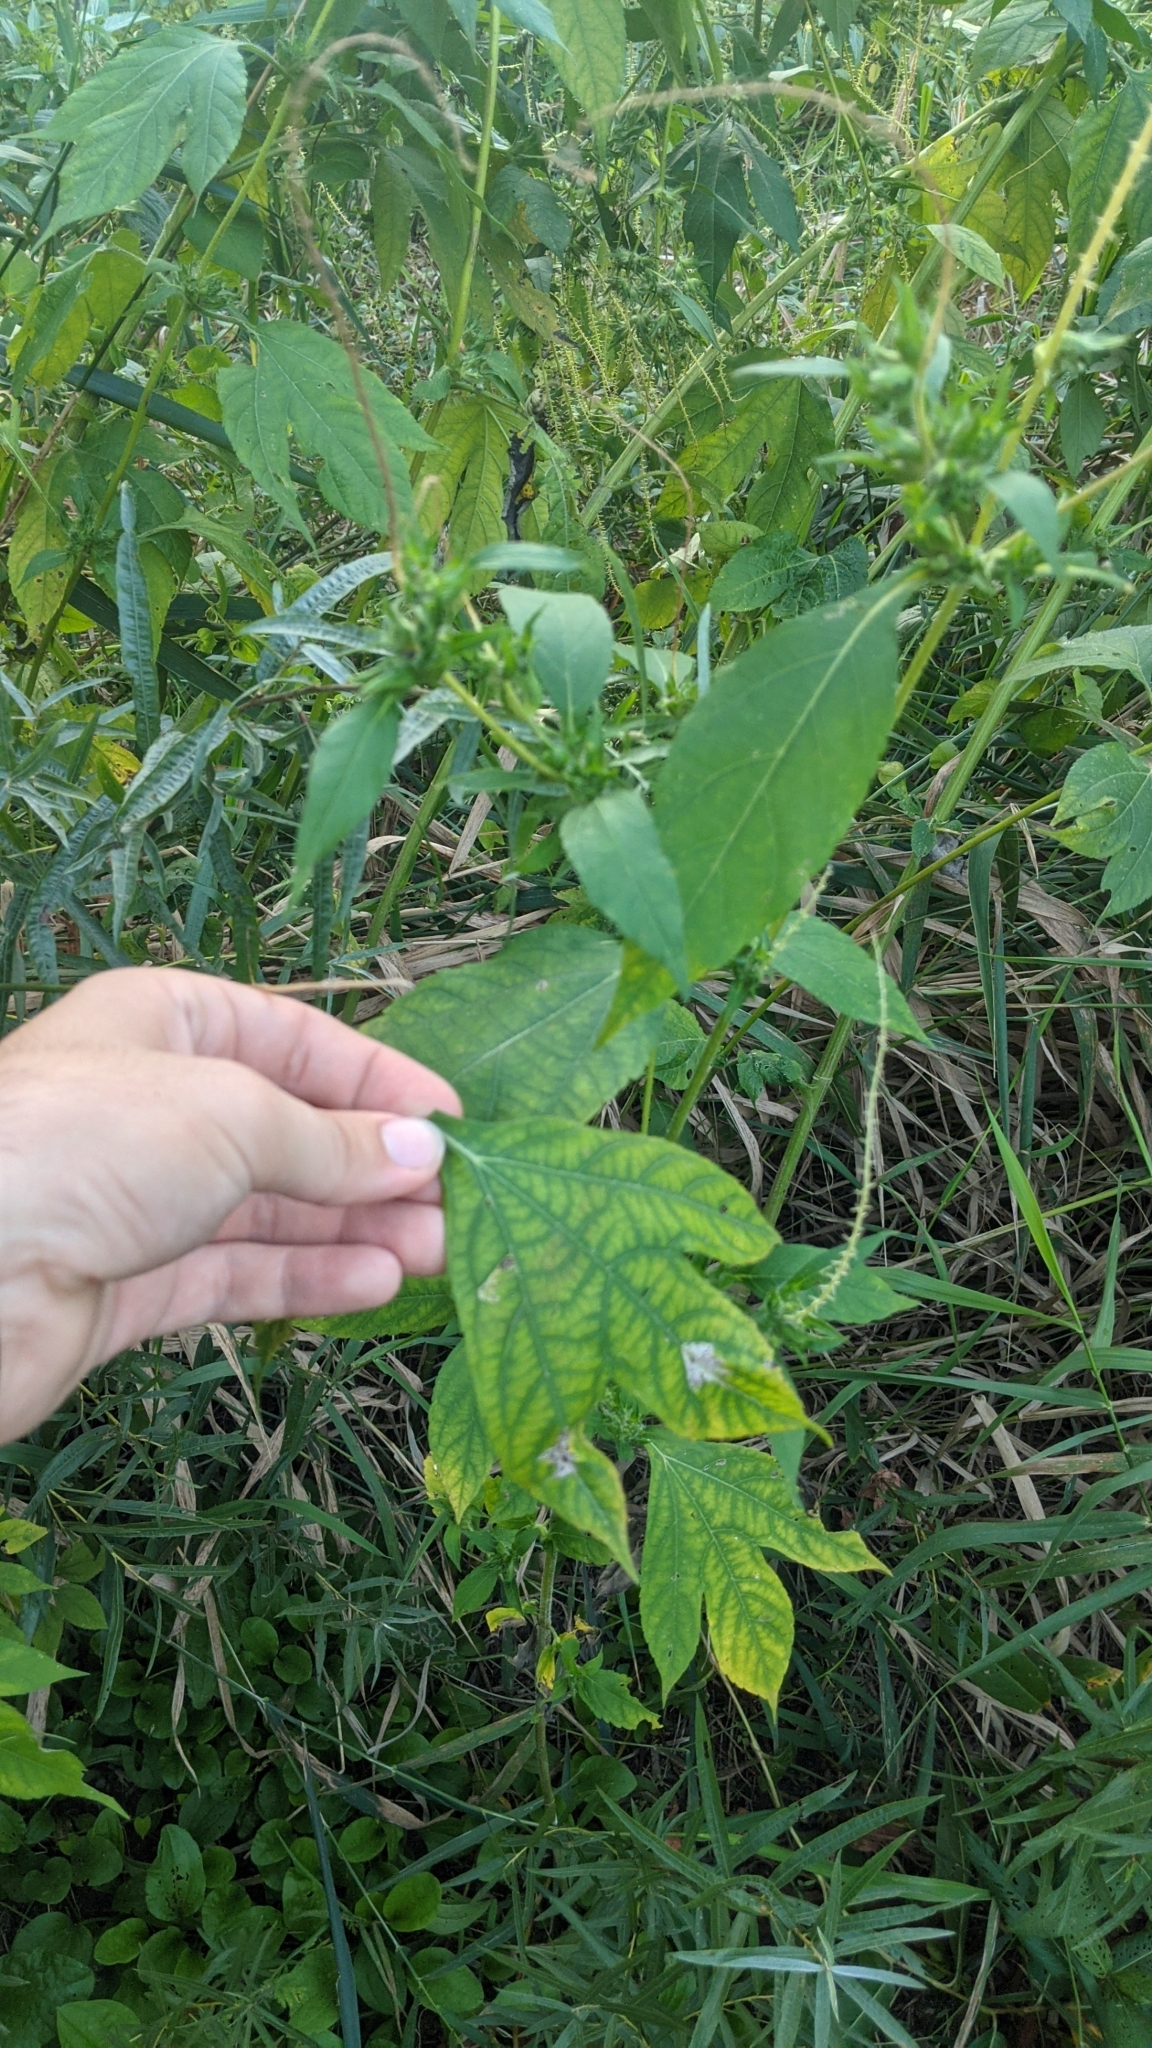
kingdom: Plantae
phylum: Tracheophyta
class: Magnoliopsida
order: Asterales
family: Asteraceae
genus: Ambrosia
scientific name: Ambrosia trifida
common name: Giant ragweed
